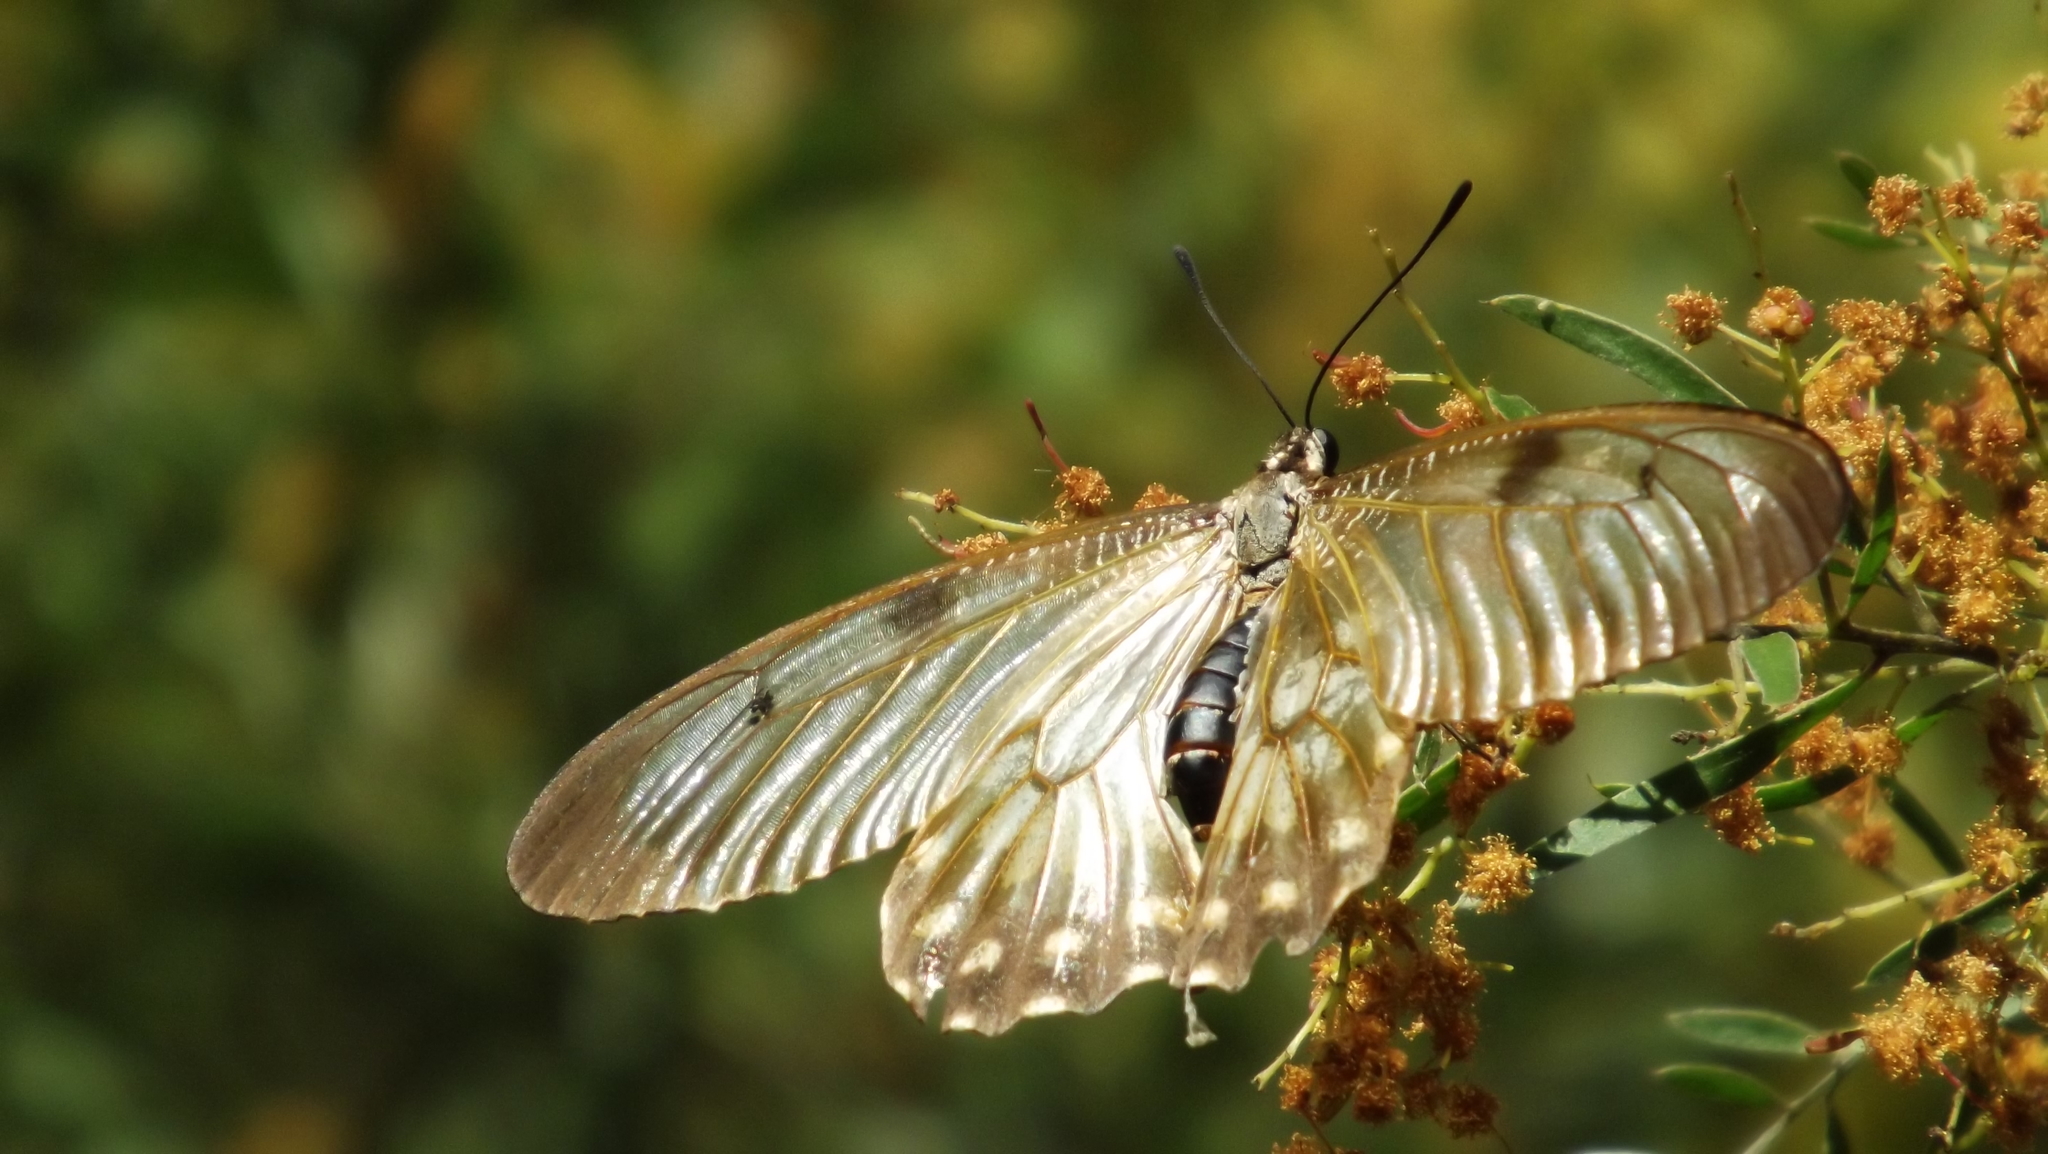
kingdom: Animalia
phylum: Arthropoda
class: Insecta
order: Lepidoptera
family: Papilionidae
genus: Cressida
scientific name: Cressida cressida
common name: Big greasy
